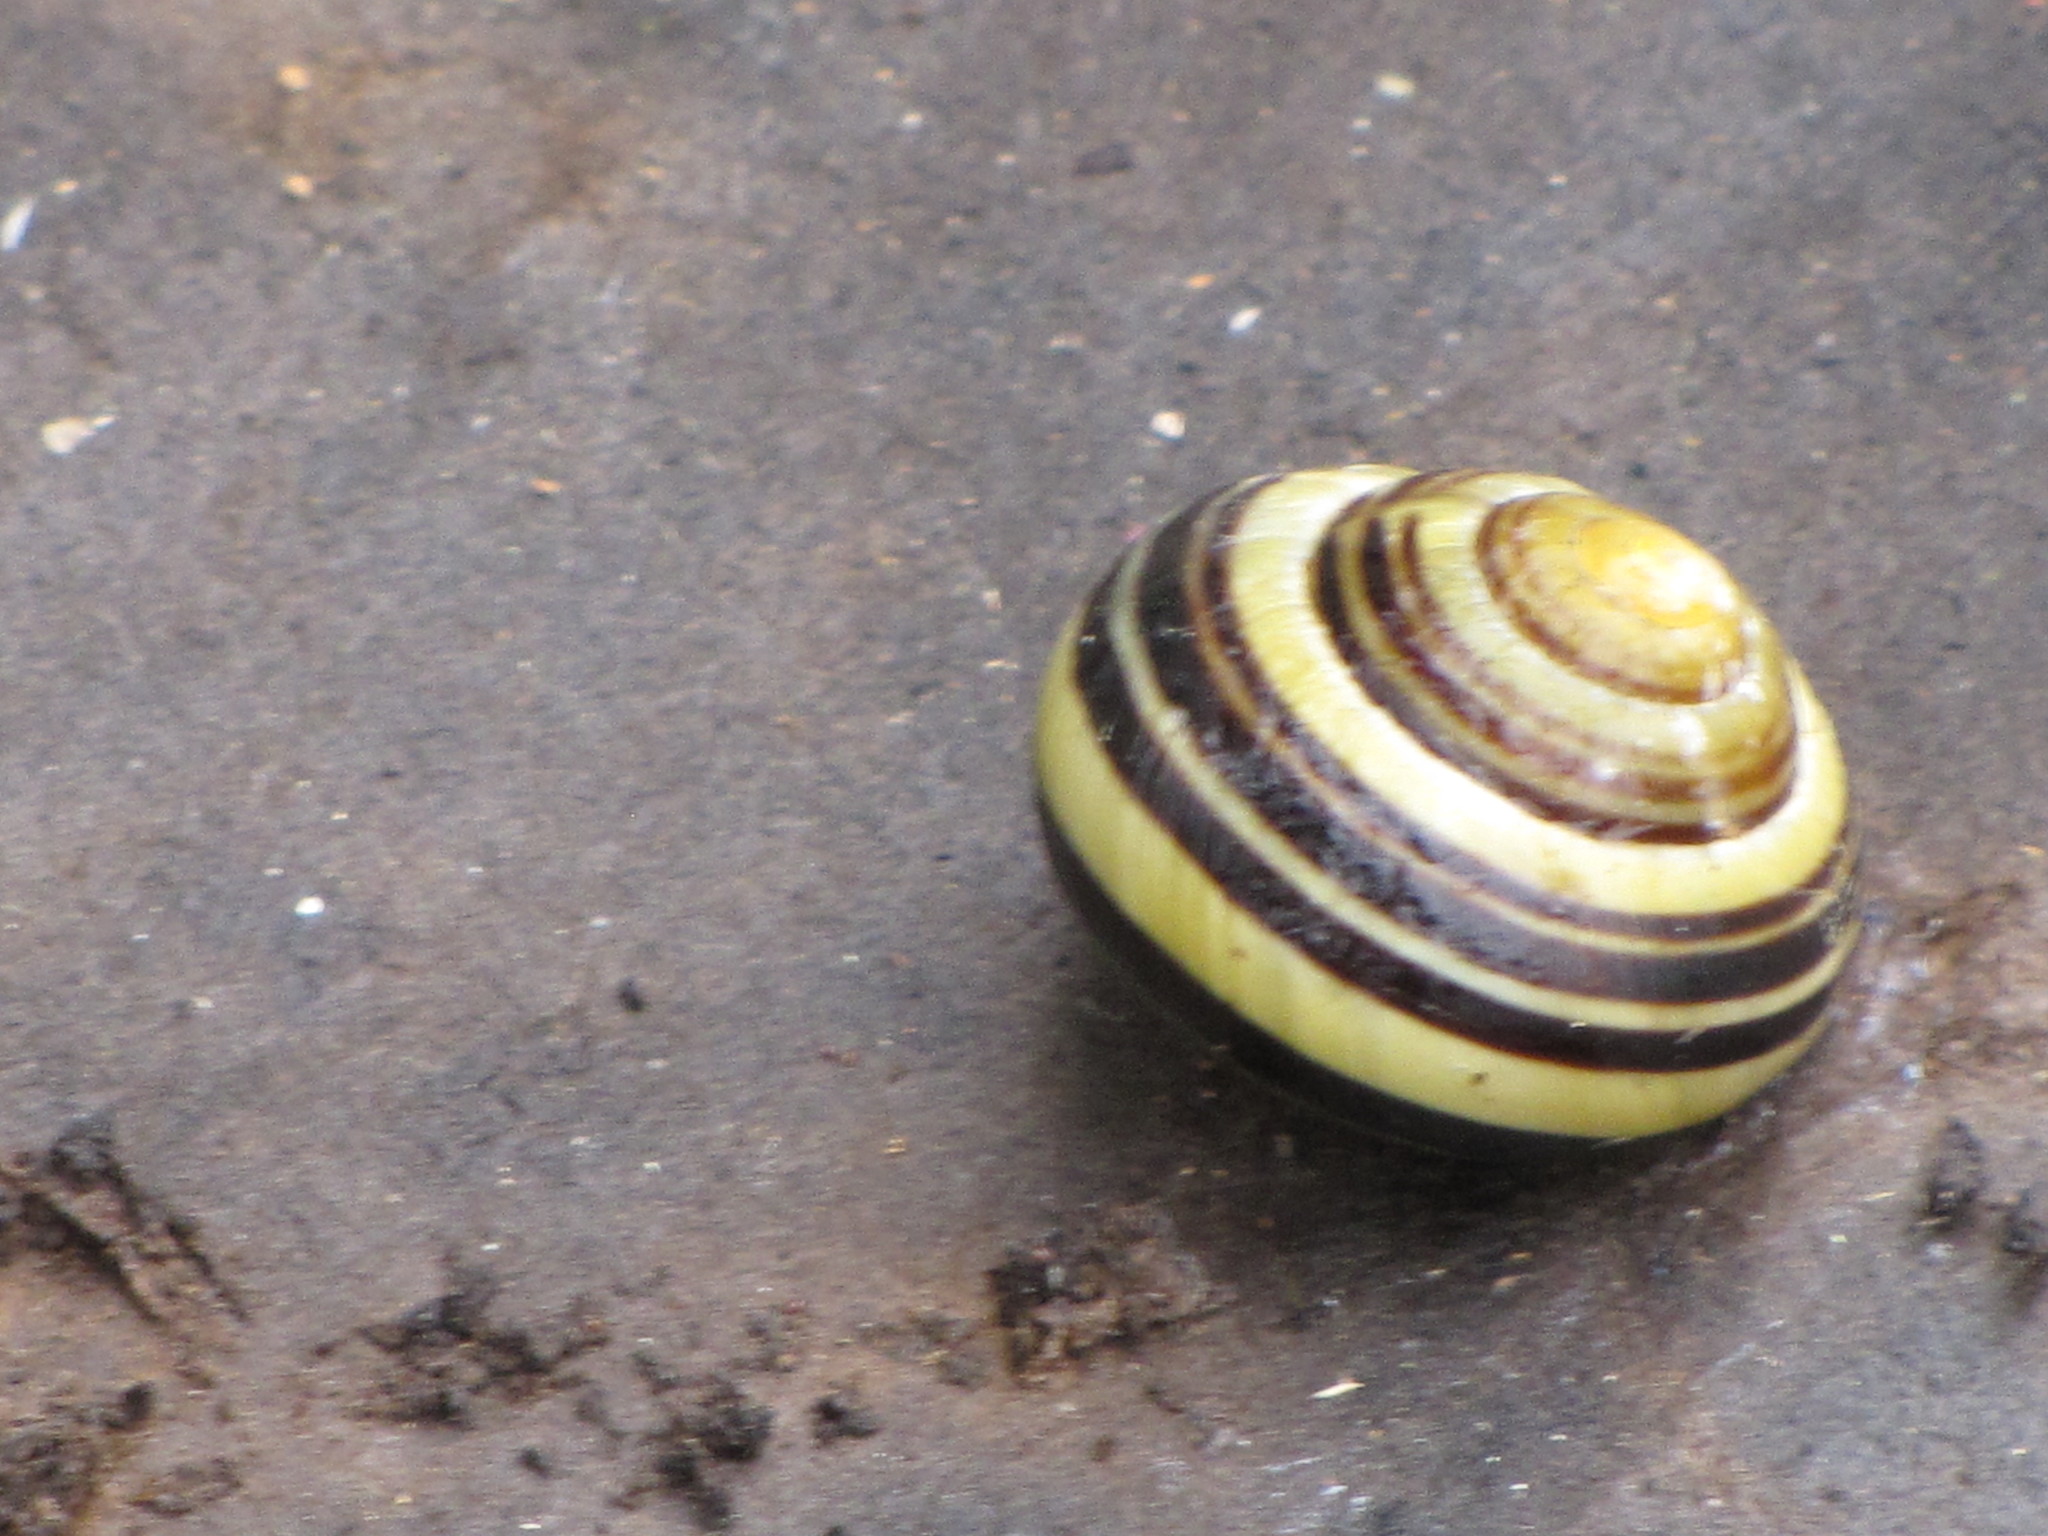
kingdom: Animalia
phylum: Mollusca
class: Gastropoda
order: Stylommatophora
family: Helicidae
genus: Cepaea
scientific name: Cepaea nemoralis
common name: Grovesnail
